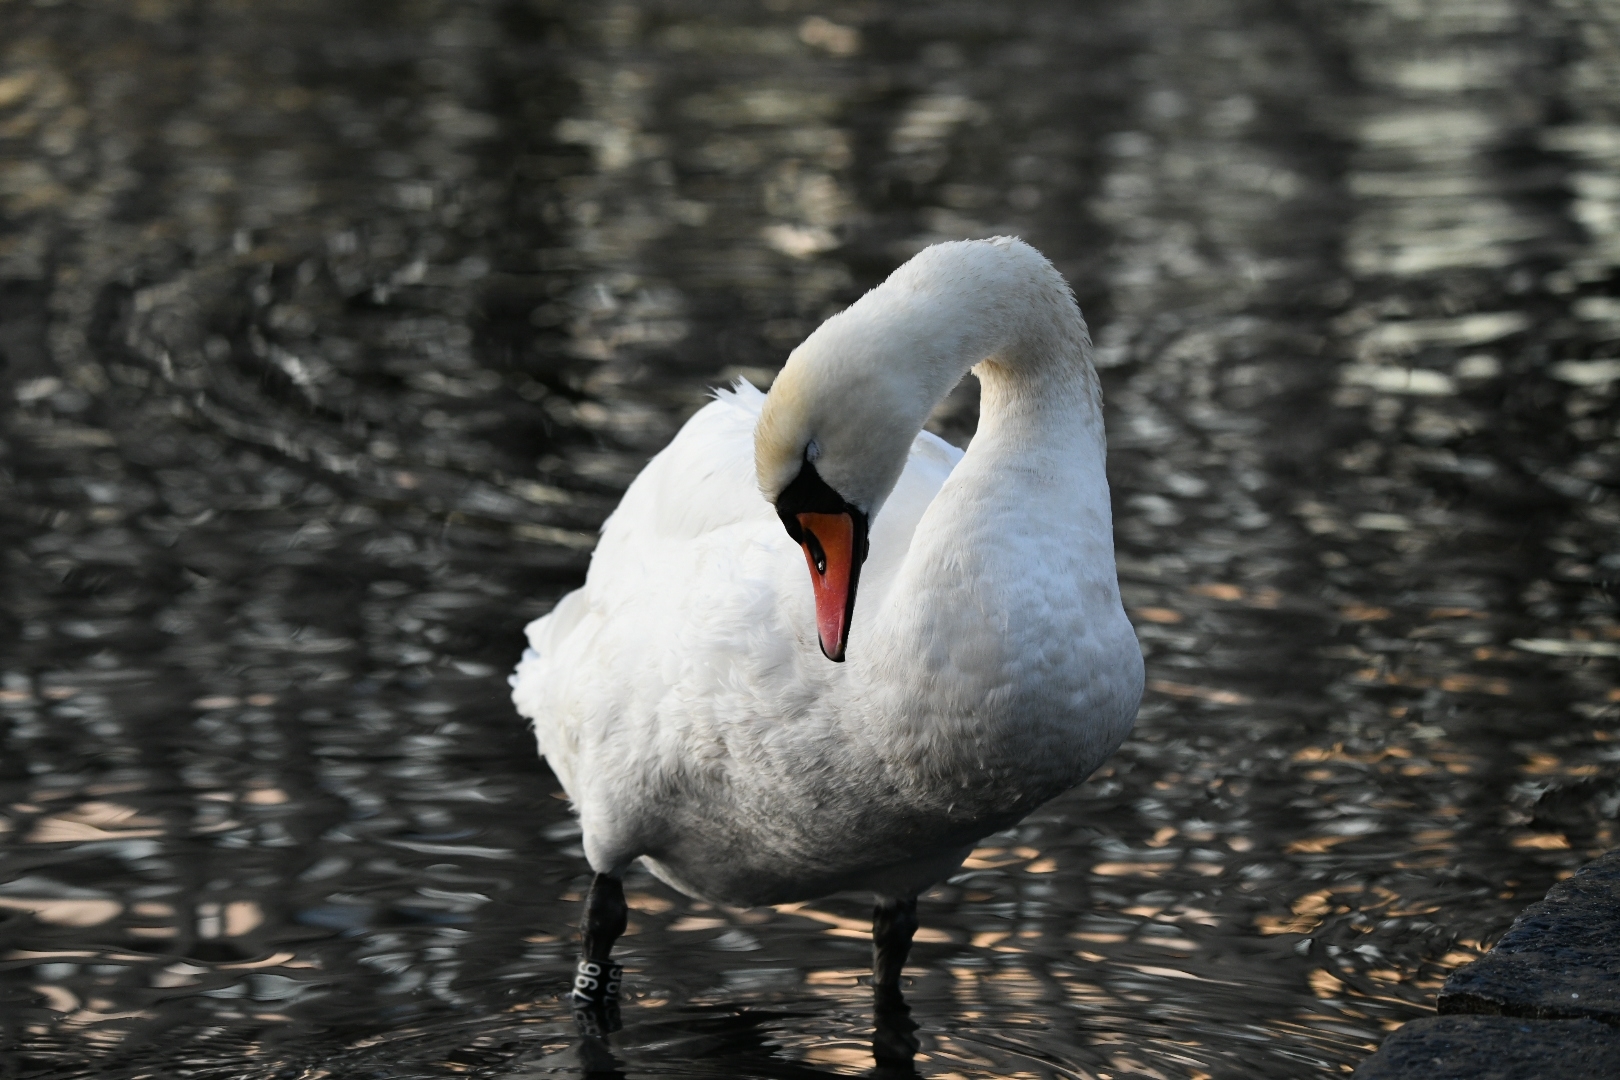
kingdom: Animalia
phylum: Chordata
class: Aves
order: Anseriformes
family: Anatidae
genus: Cygnus
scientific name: Cygnus olor
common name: Mute swan
